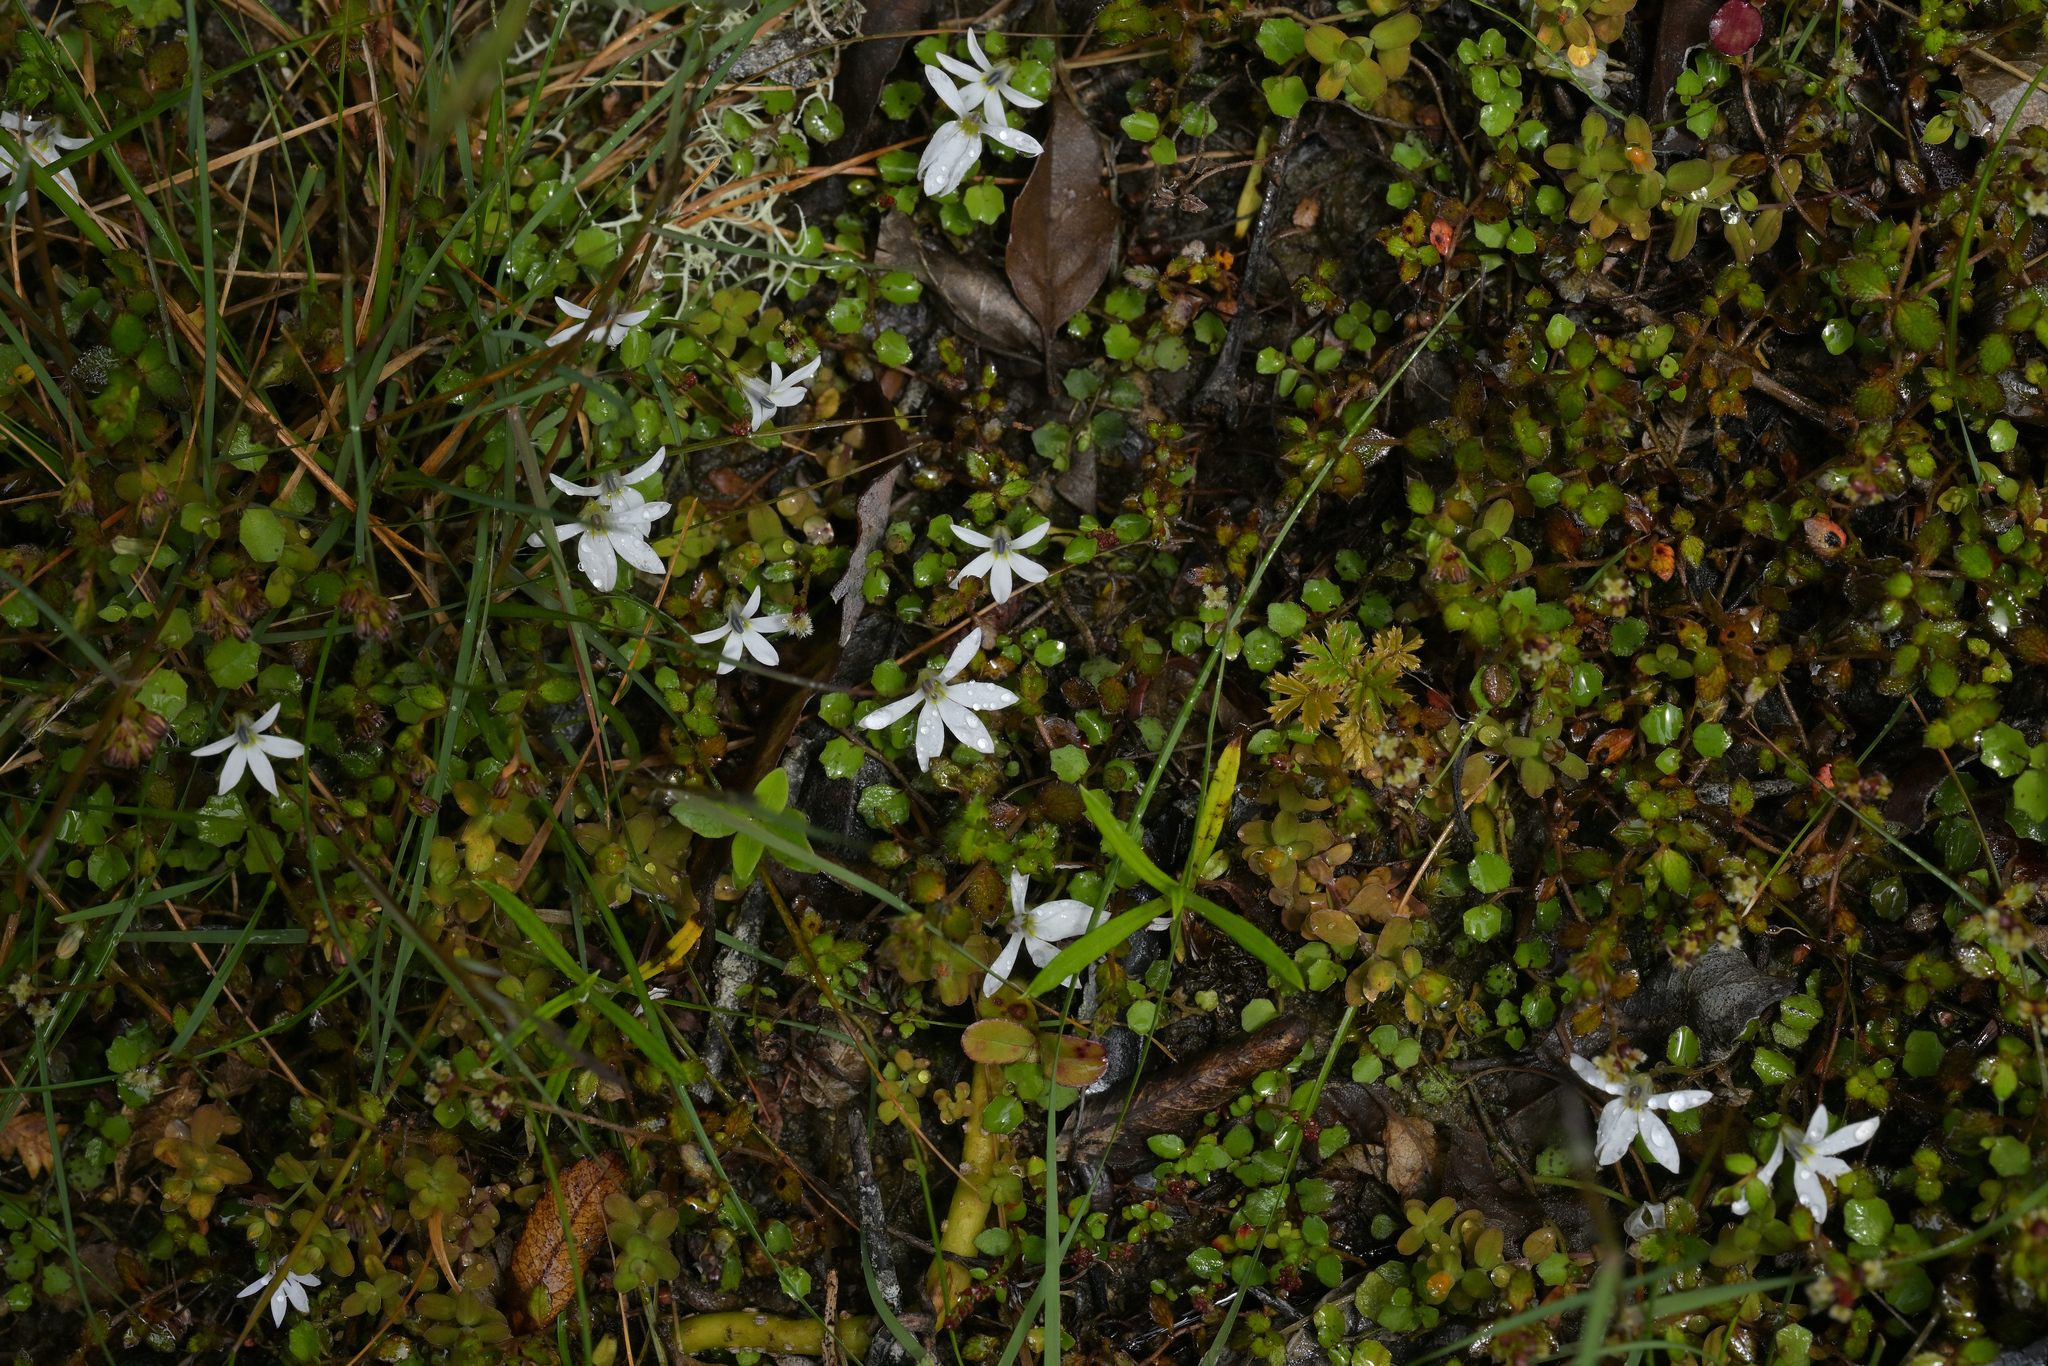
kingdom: Plantae
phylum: Tracheophyta
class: Magnoliopsida
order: Asterales
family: Campanulaceae
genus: Lobelia
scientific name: Lobelia angulata
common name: Lawn lobelia
